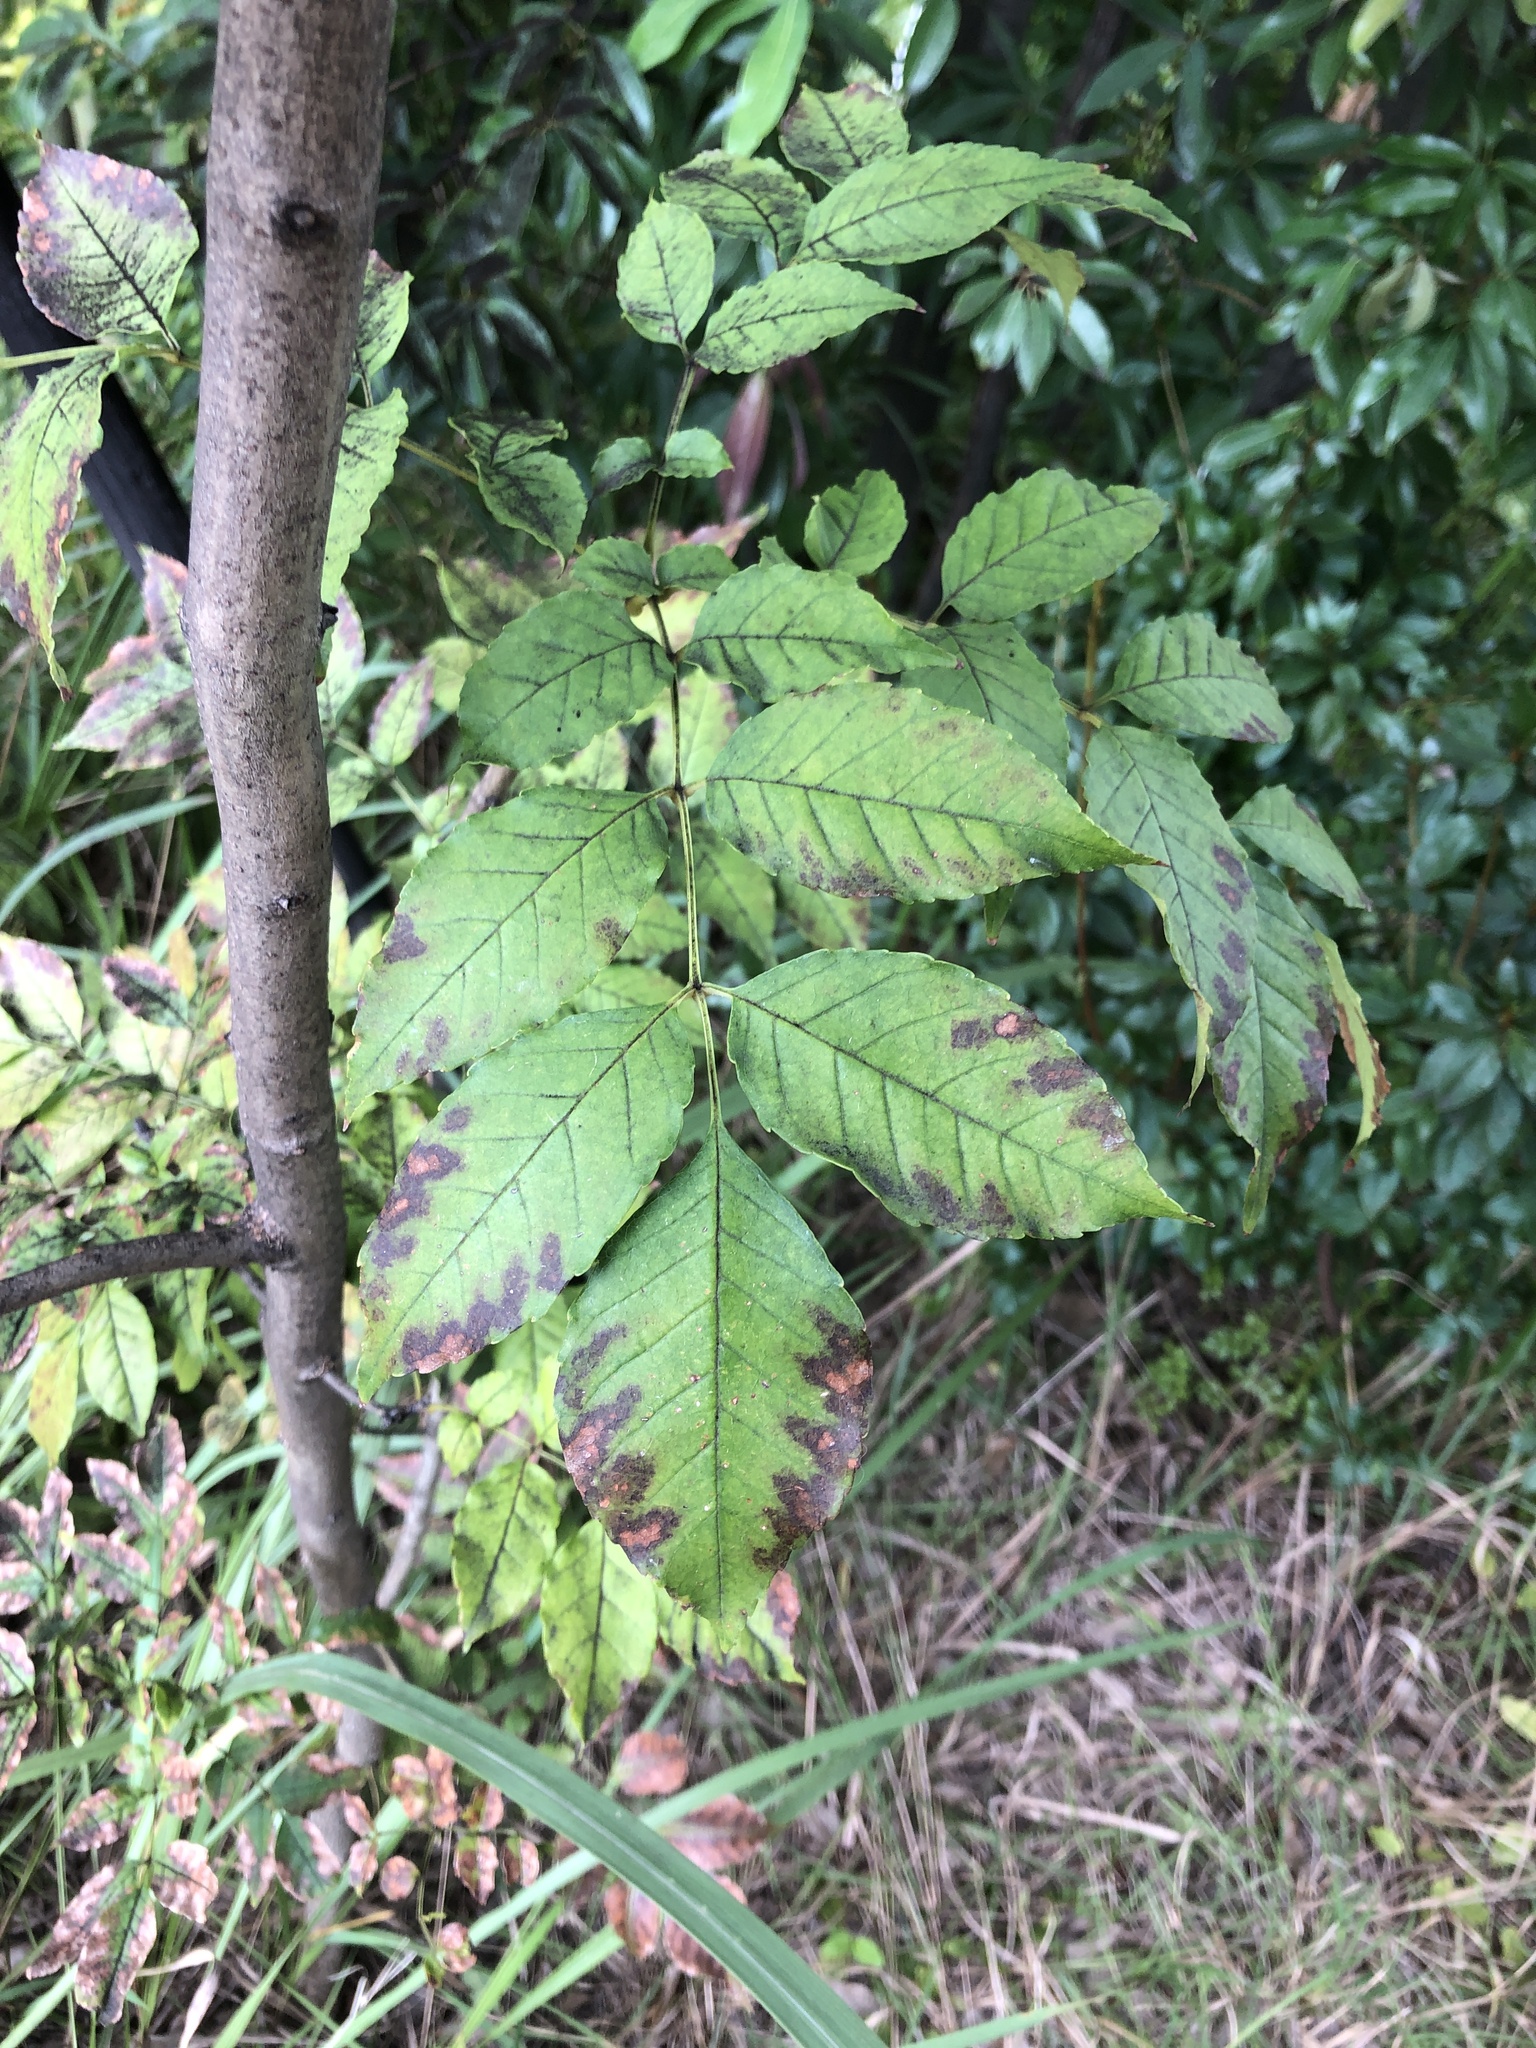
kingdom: Plantae
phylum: Tracheophyta
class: Magnoliopsida
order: Lamiales
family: Oleaceae
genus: Fraxinus
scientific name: Fraxinus sieboldiana
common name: Chinese flowering ash
